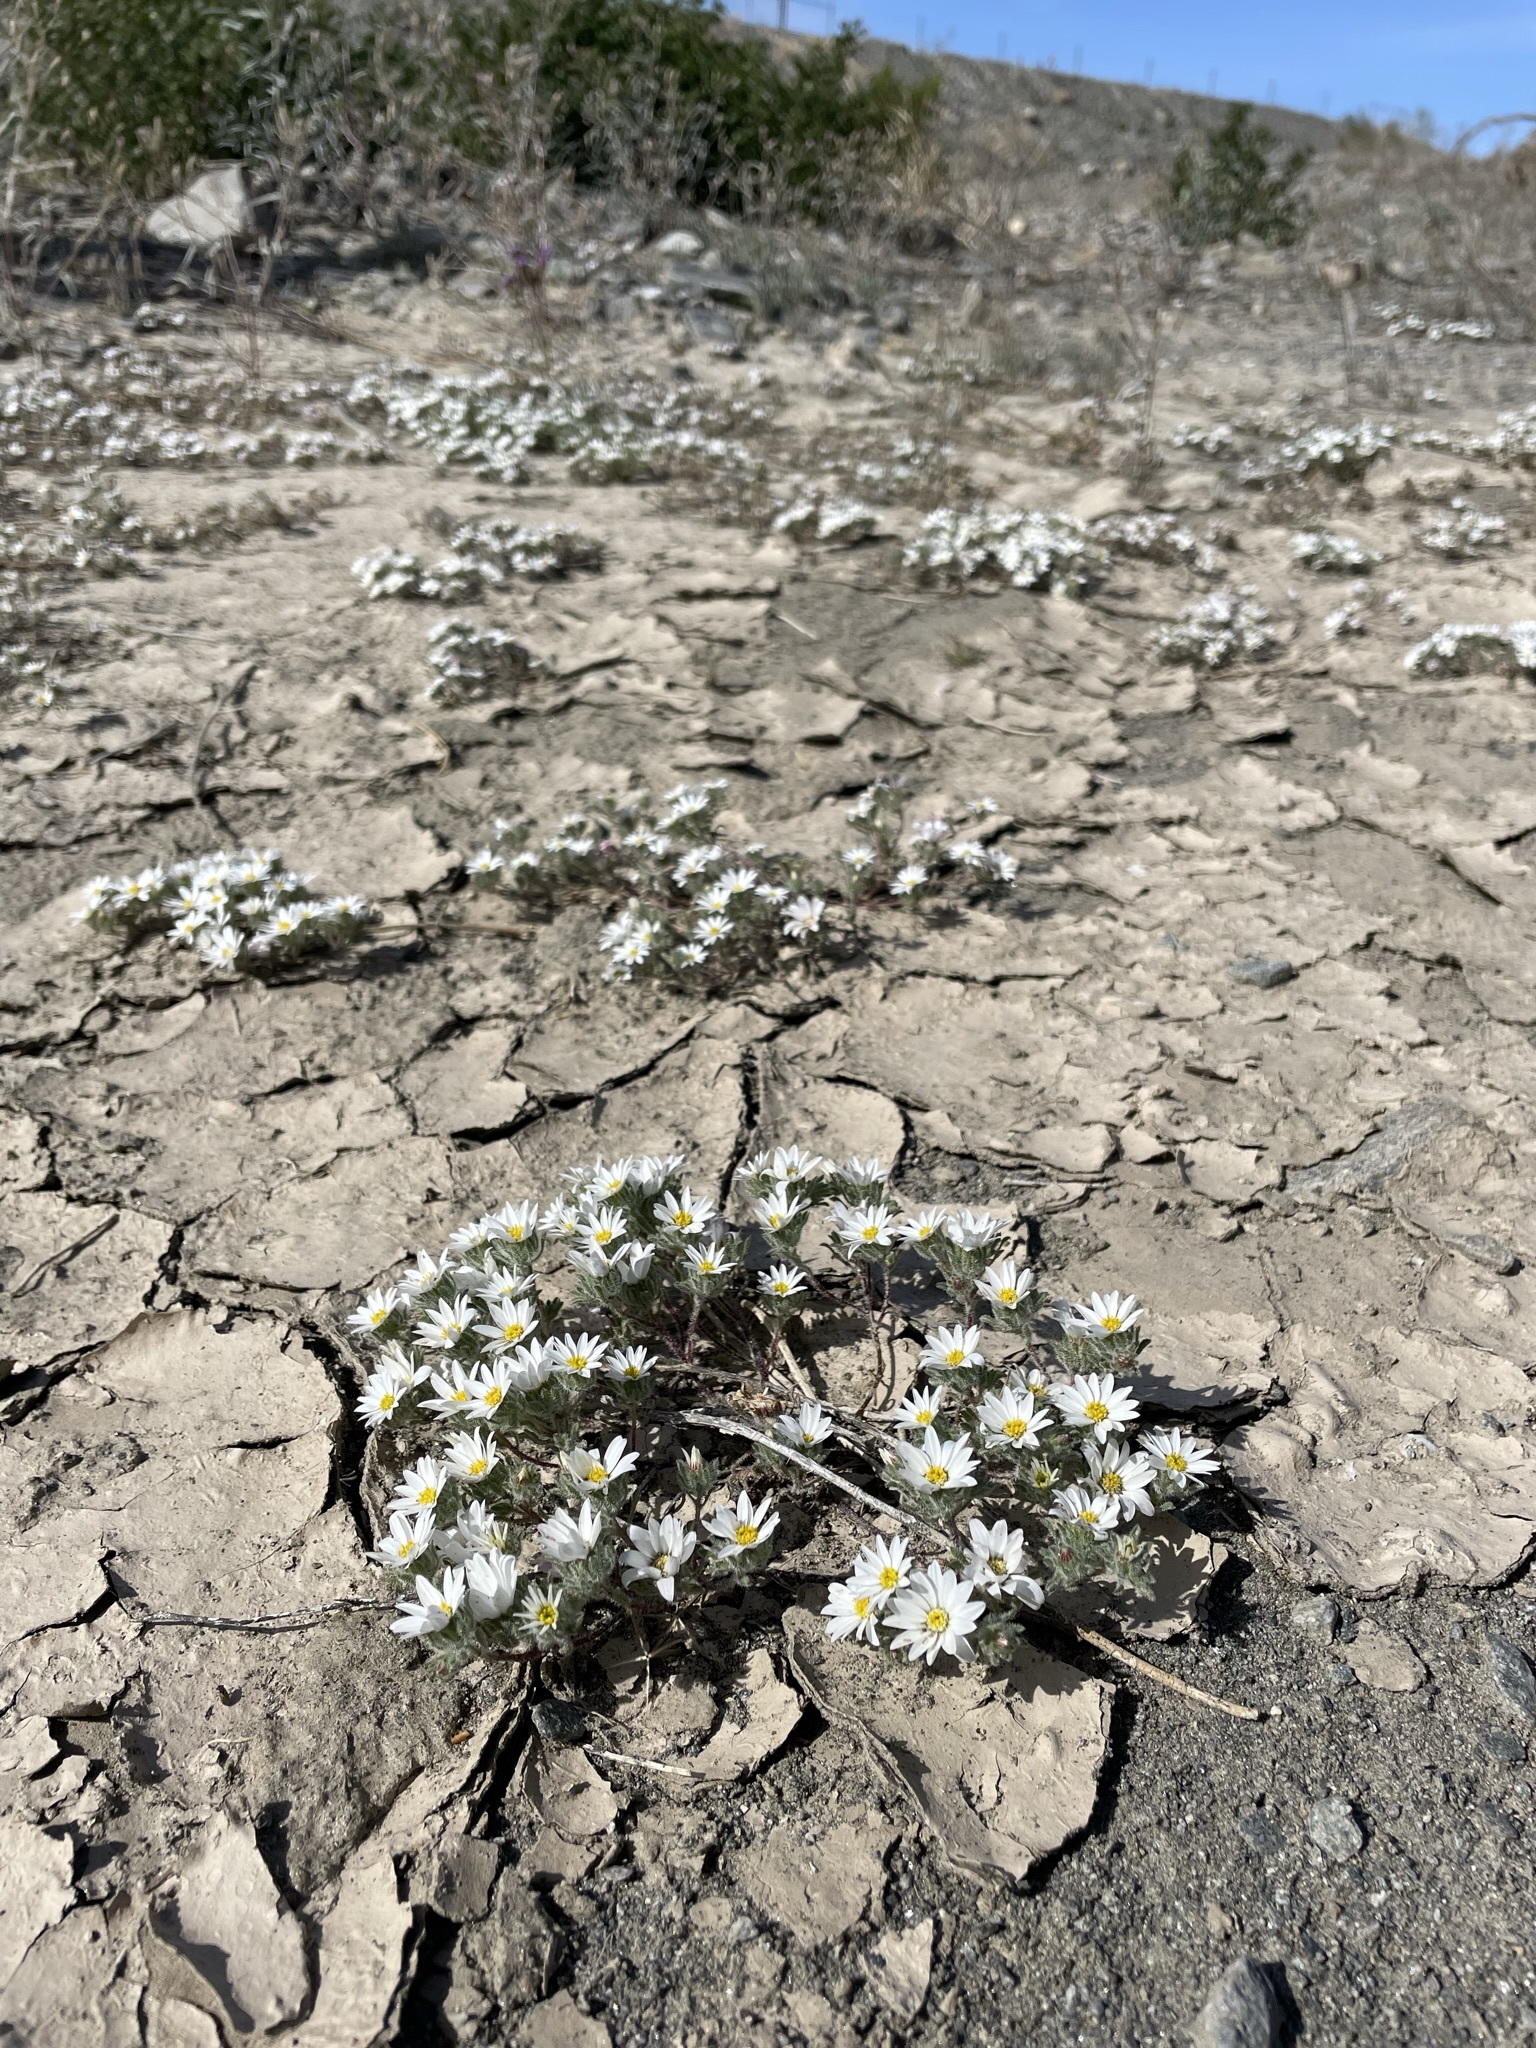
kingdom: Plantae
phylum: Tracheophyta
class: Magnoliopsida
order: Asterales
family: Asteraceae
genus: Monoptilon
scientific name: Monoptilon bellioides
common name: Bristly desertstar
